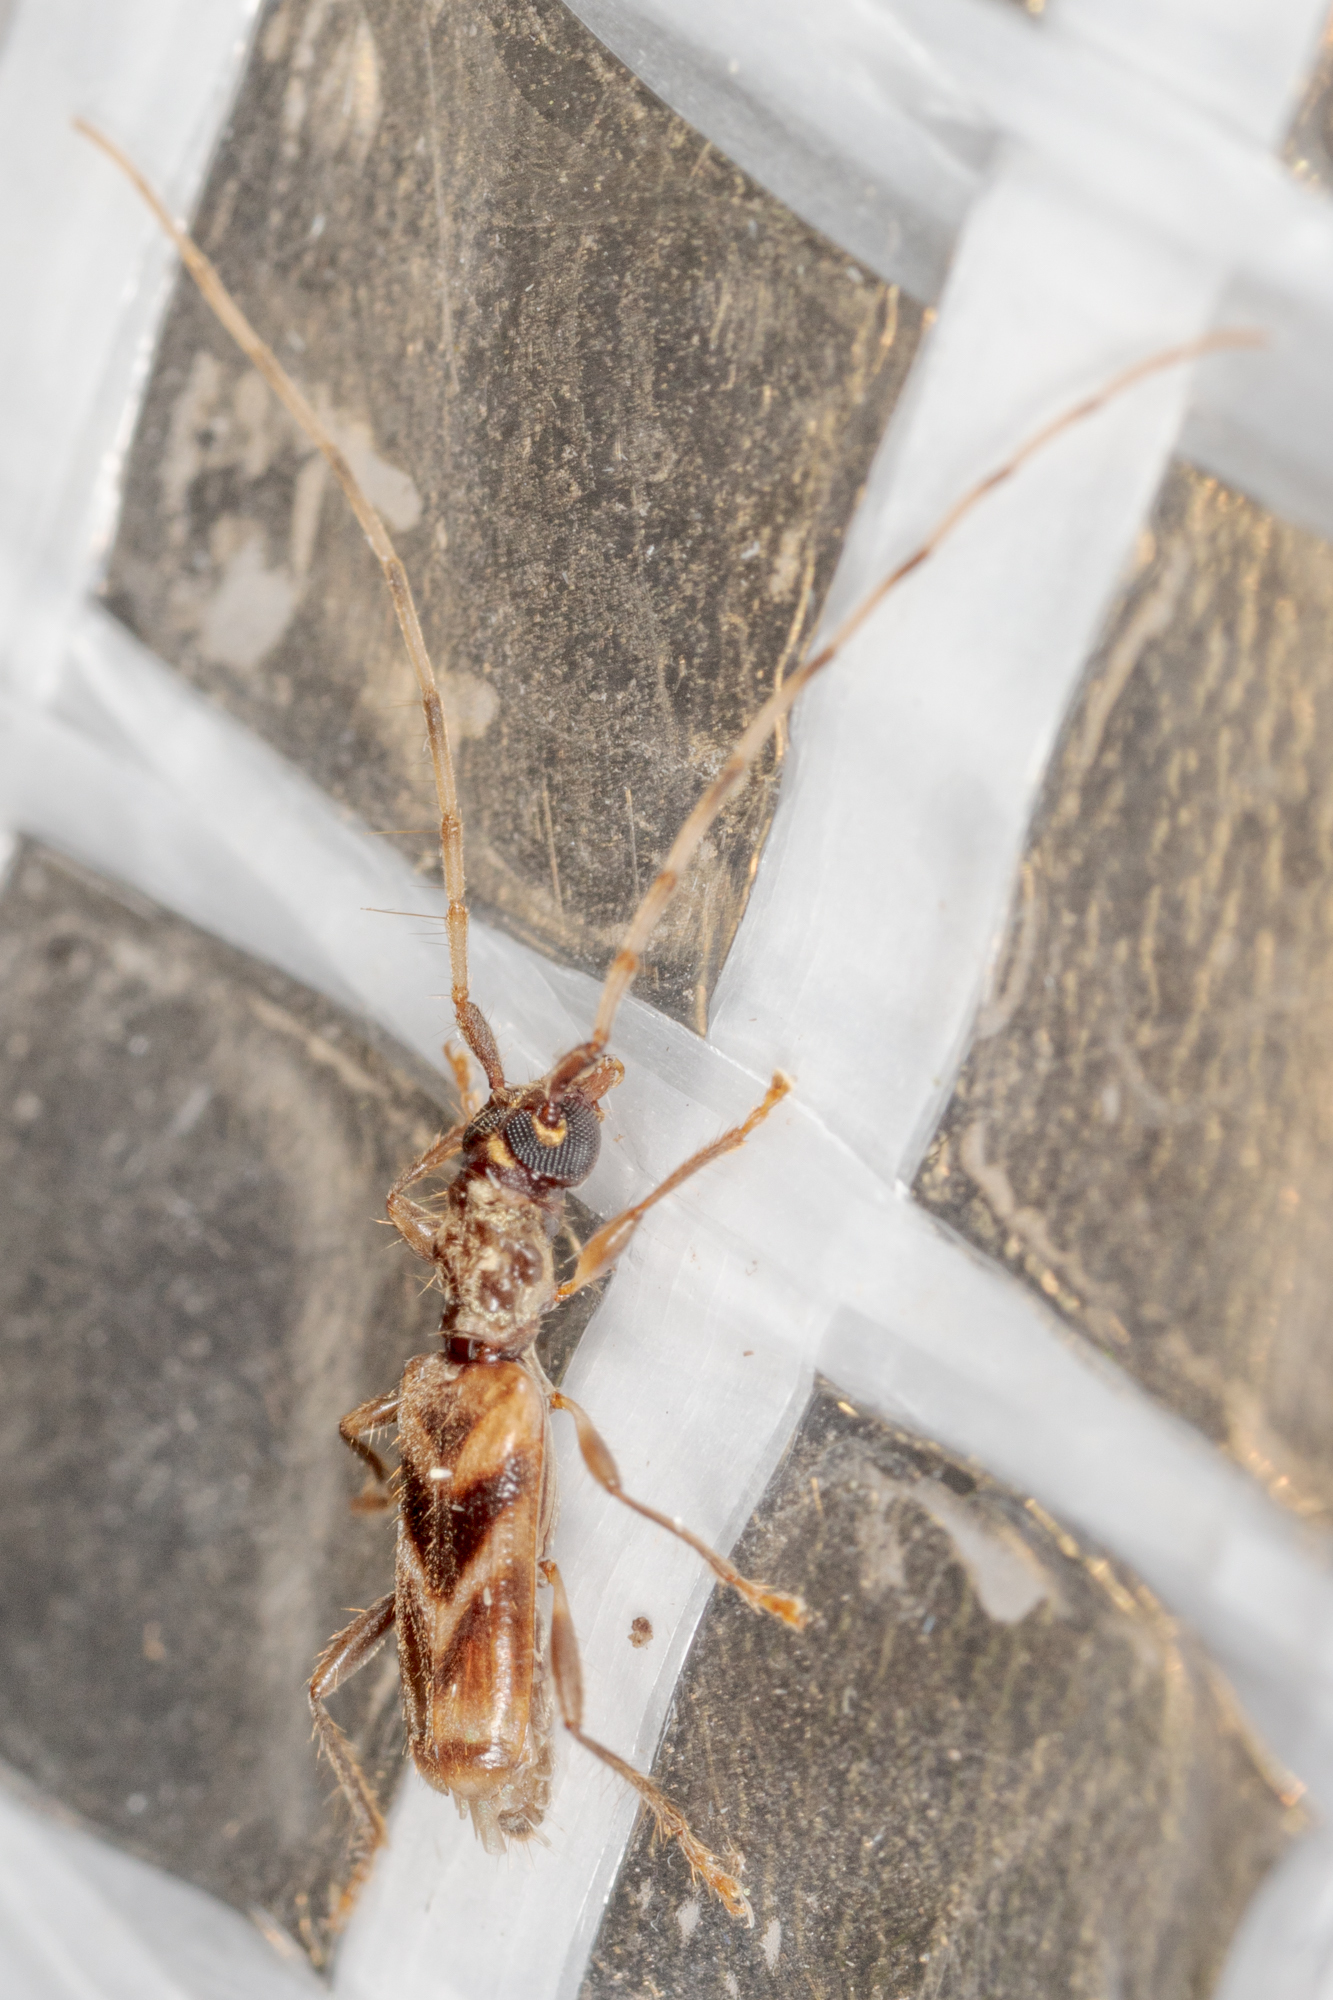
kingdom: Animalia
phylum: Arthropoda
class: Insecta
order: Coleoptera
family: Cerambycidae
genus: Stenhomalus
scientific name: Stenhomalus taiwanus
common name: Taiwan slender longhorned beetle
